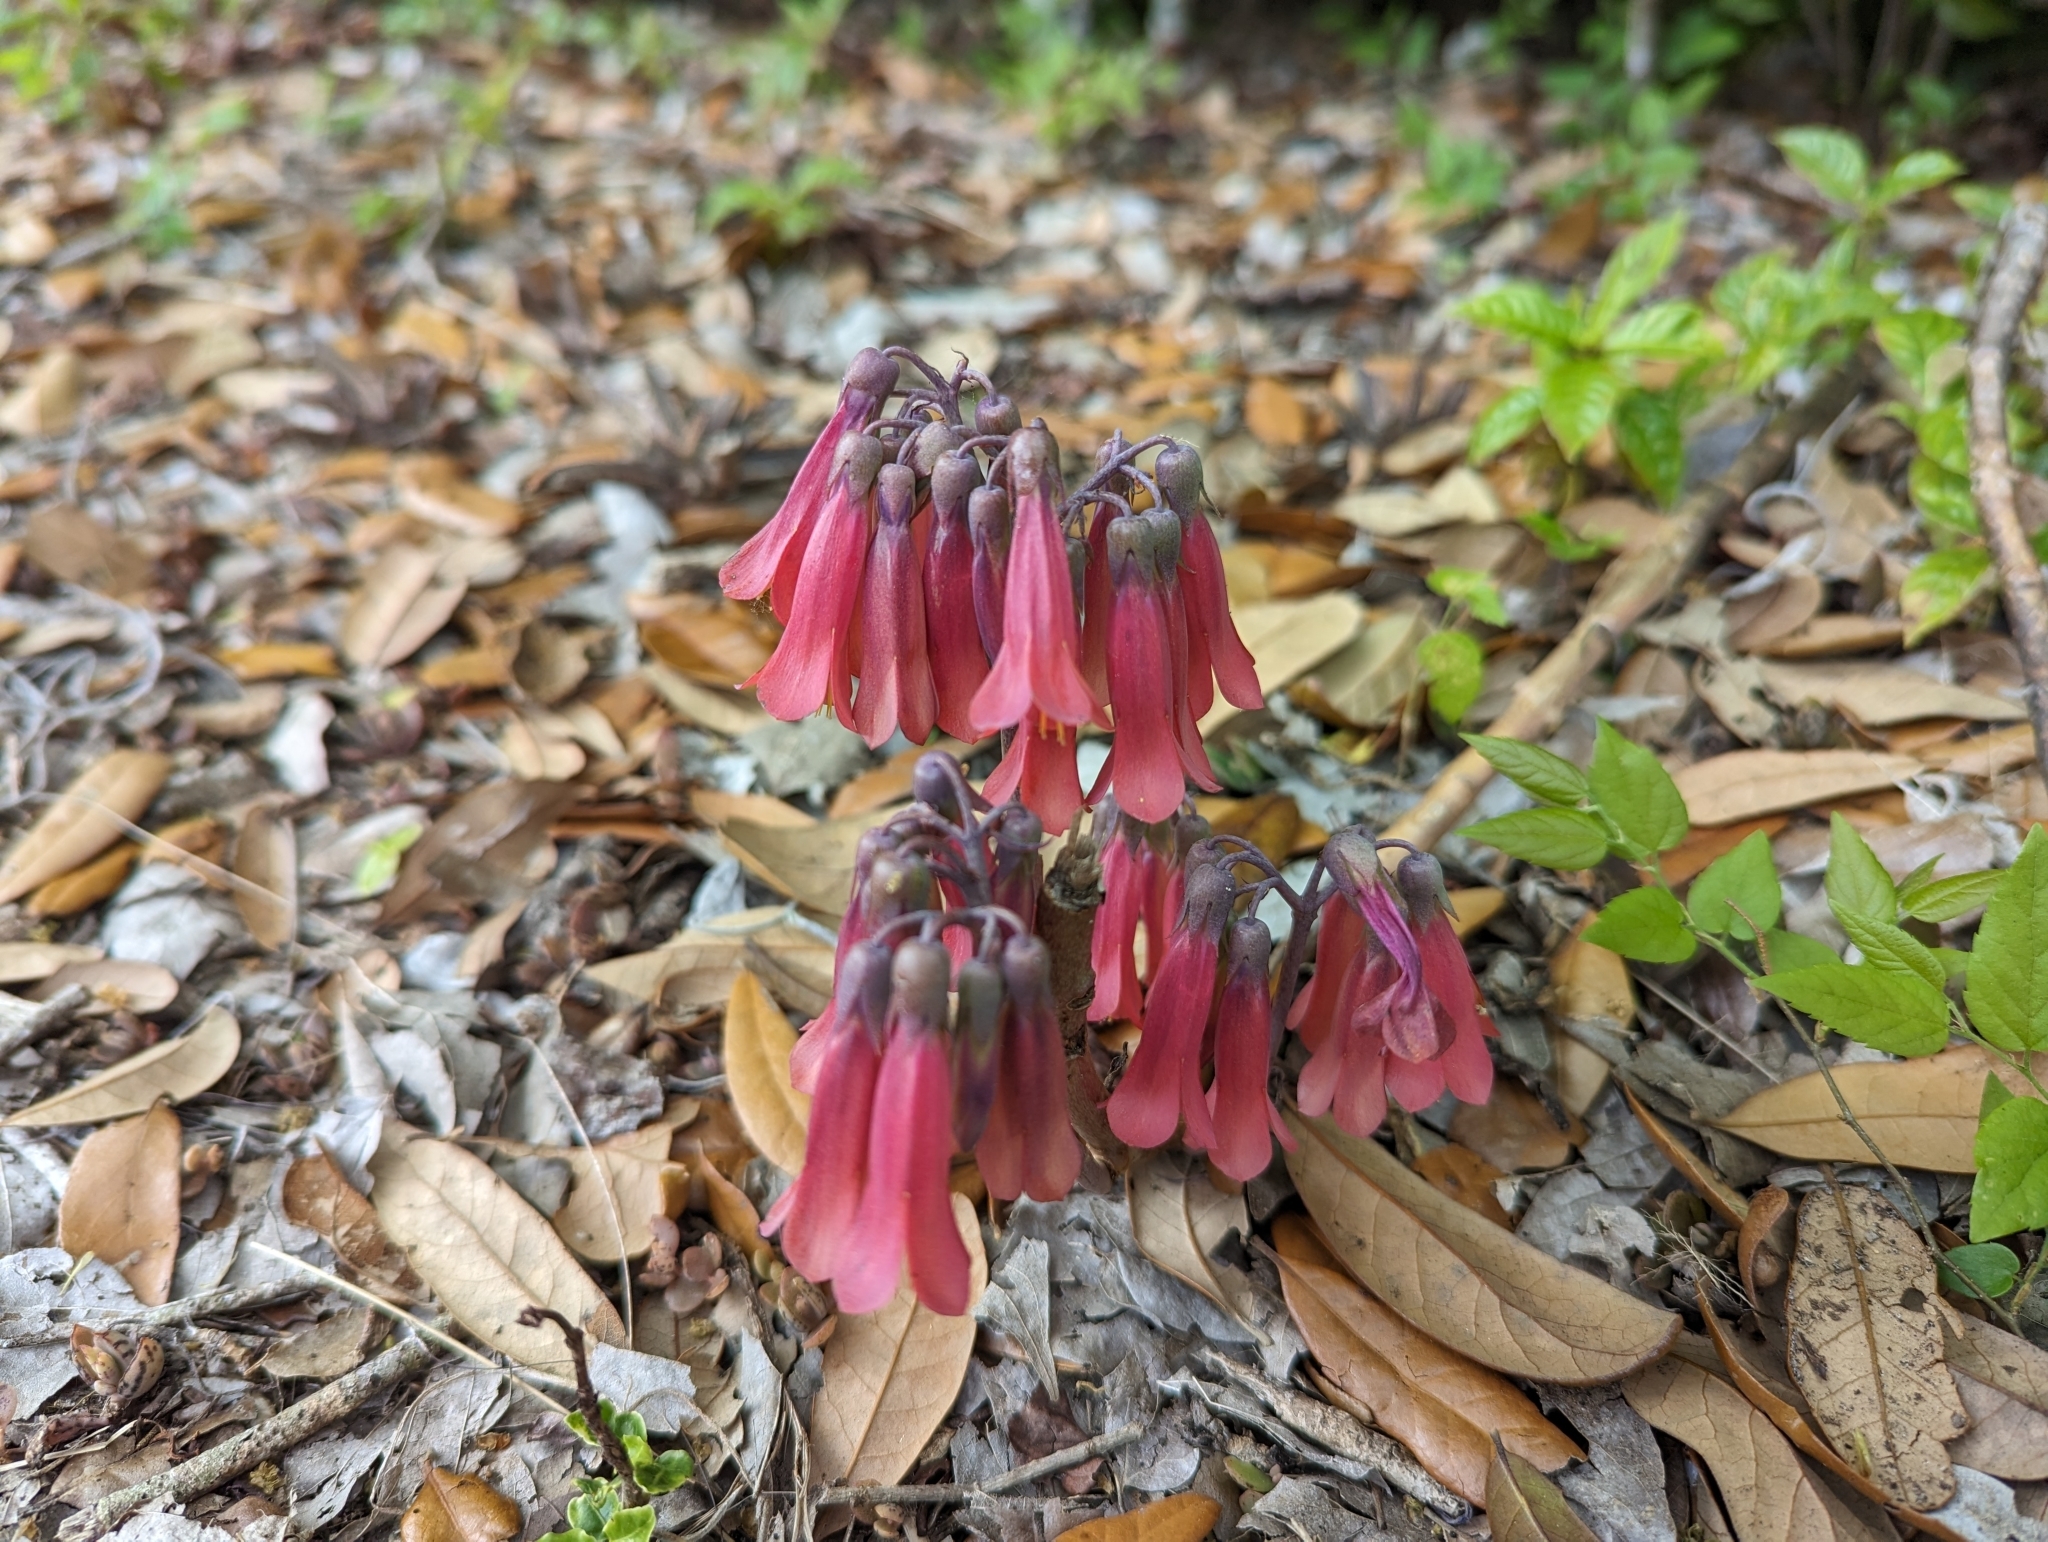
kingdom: Chromista
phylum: Ciliophora
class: Gymnostomatea
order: Spathidiida
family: Spathidiidae
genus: Bryophyllum
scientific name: Bryophyllum
